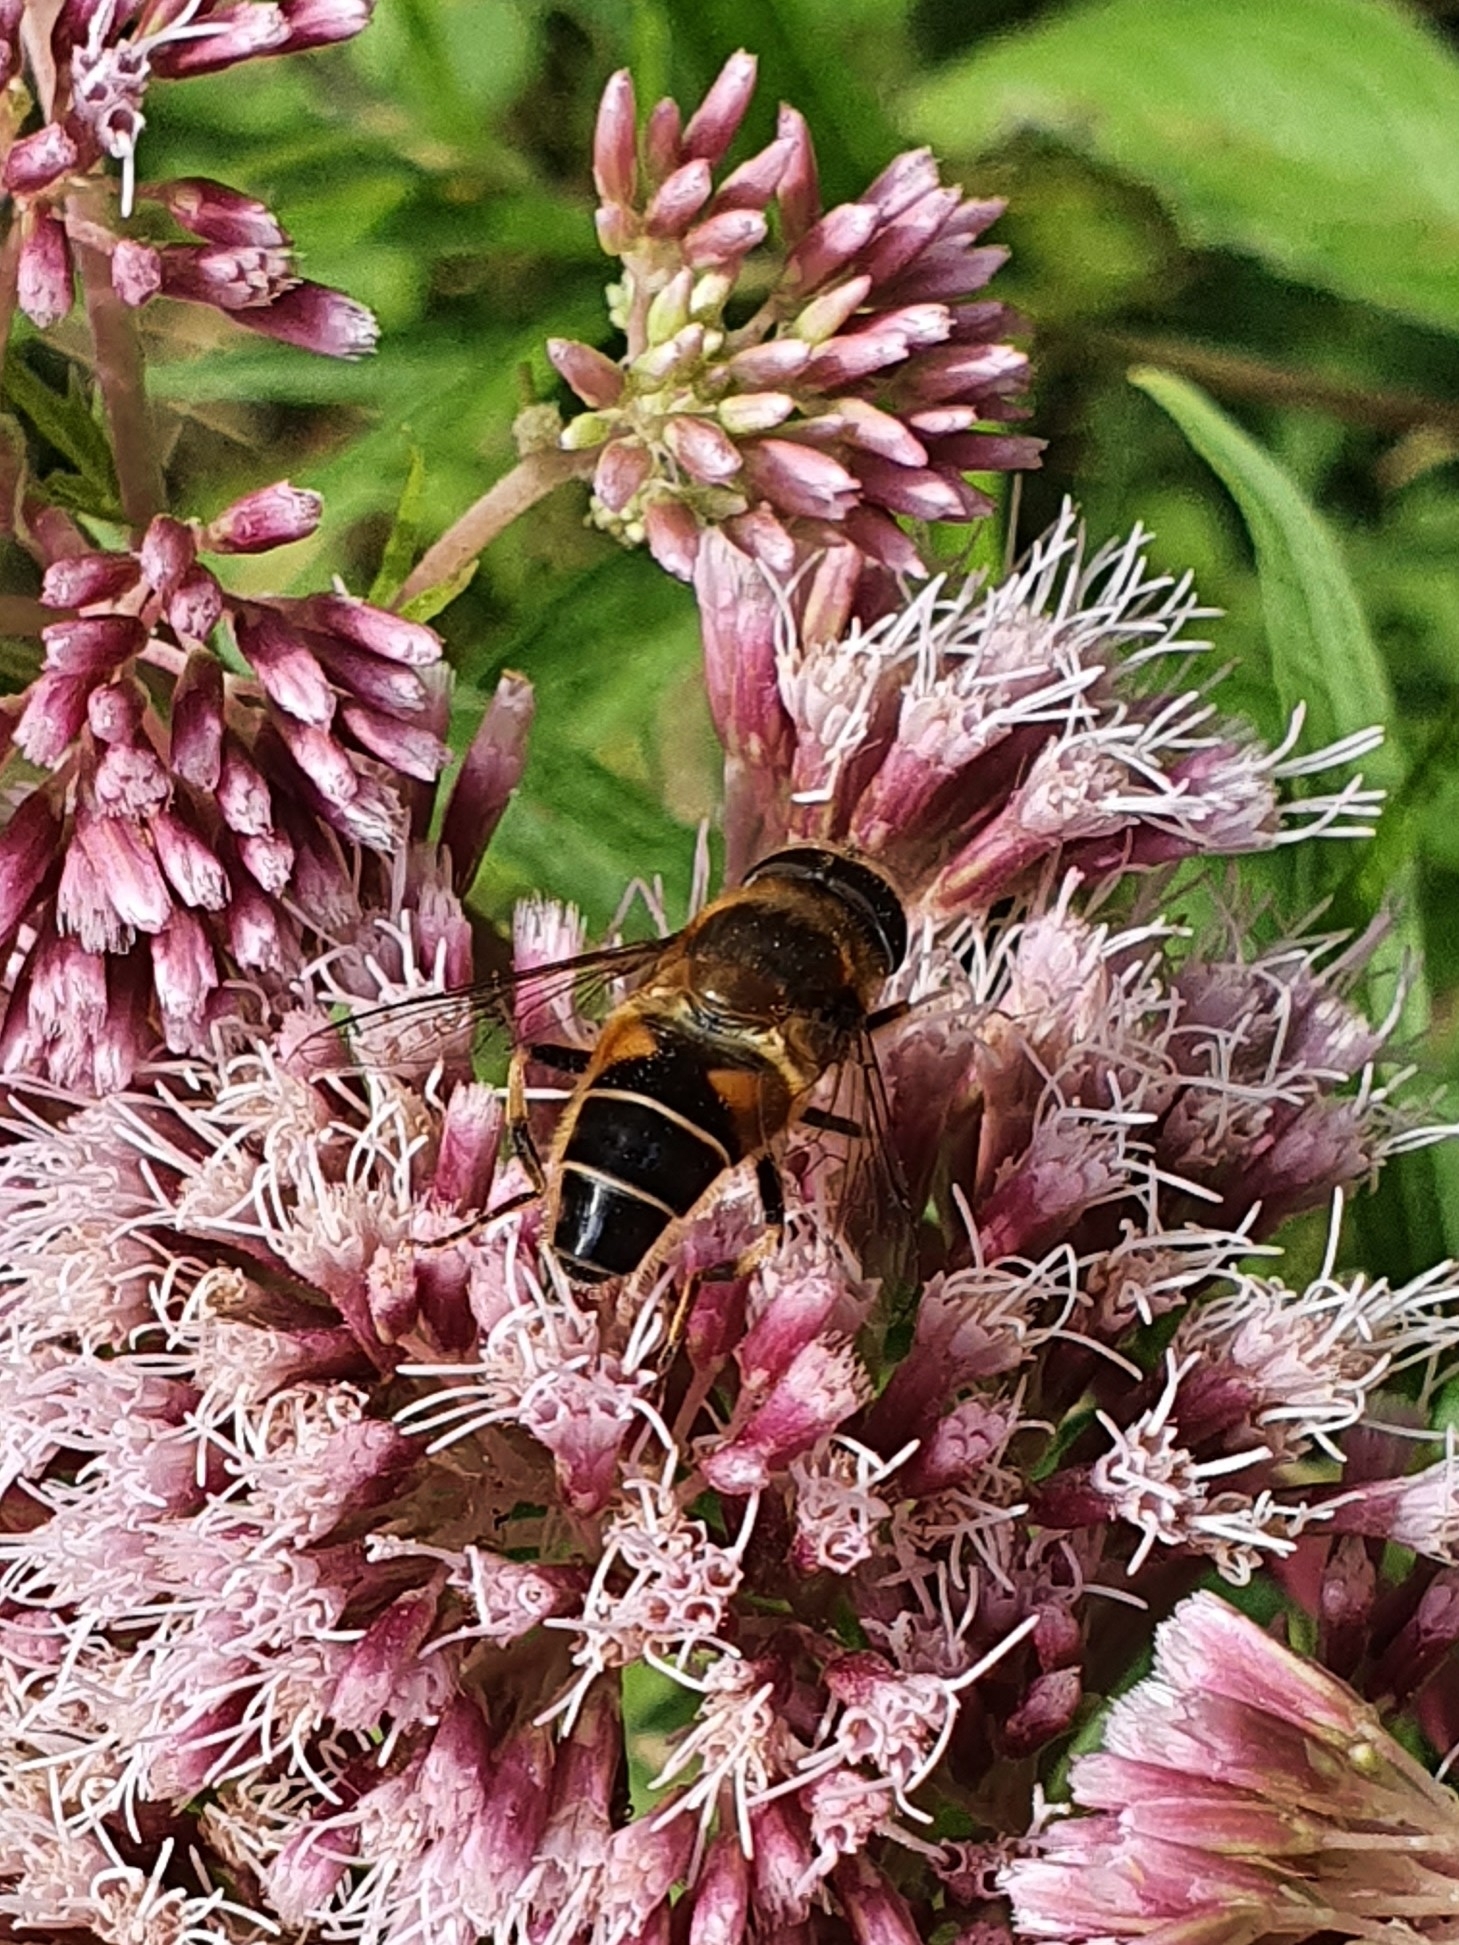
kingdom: Animalia
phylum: Arthropoda
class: Insecta
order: Diptera
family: Syrphidae
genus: Eristalis
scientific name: Eristalis pertinax
